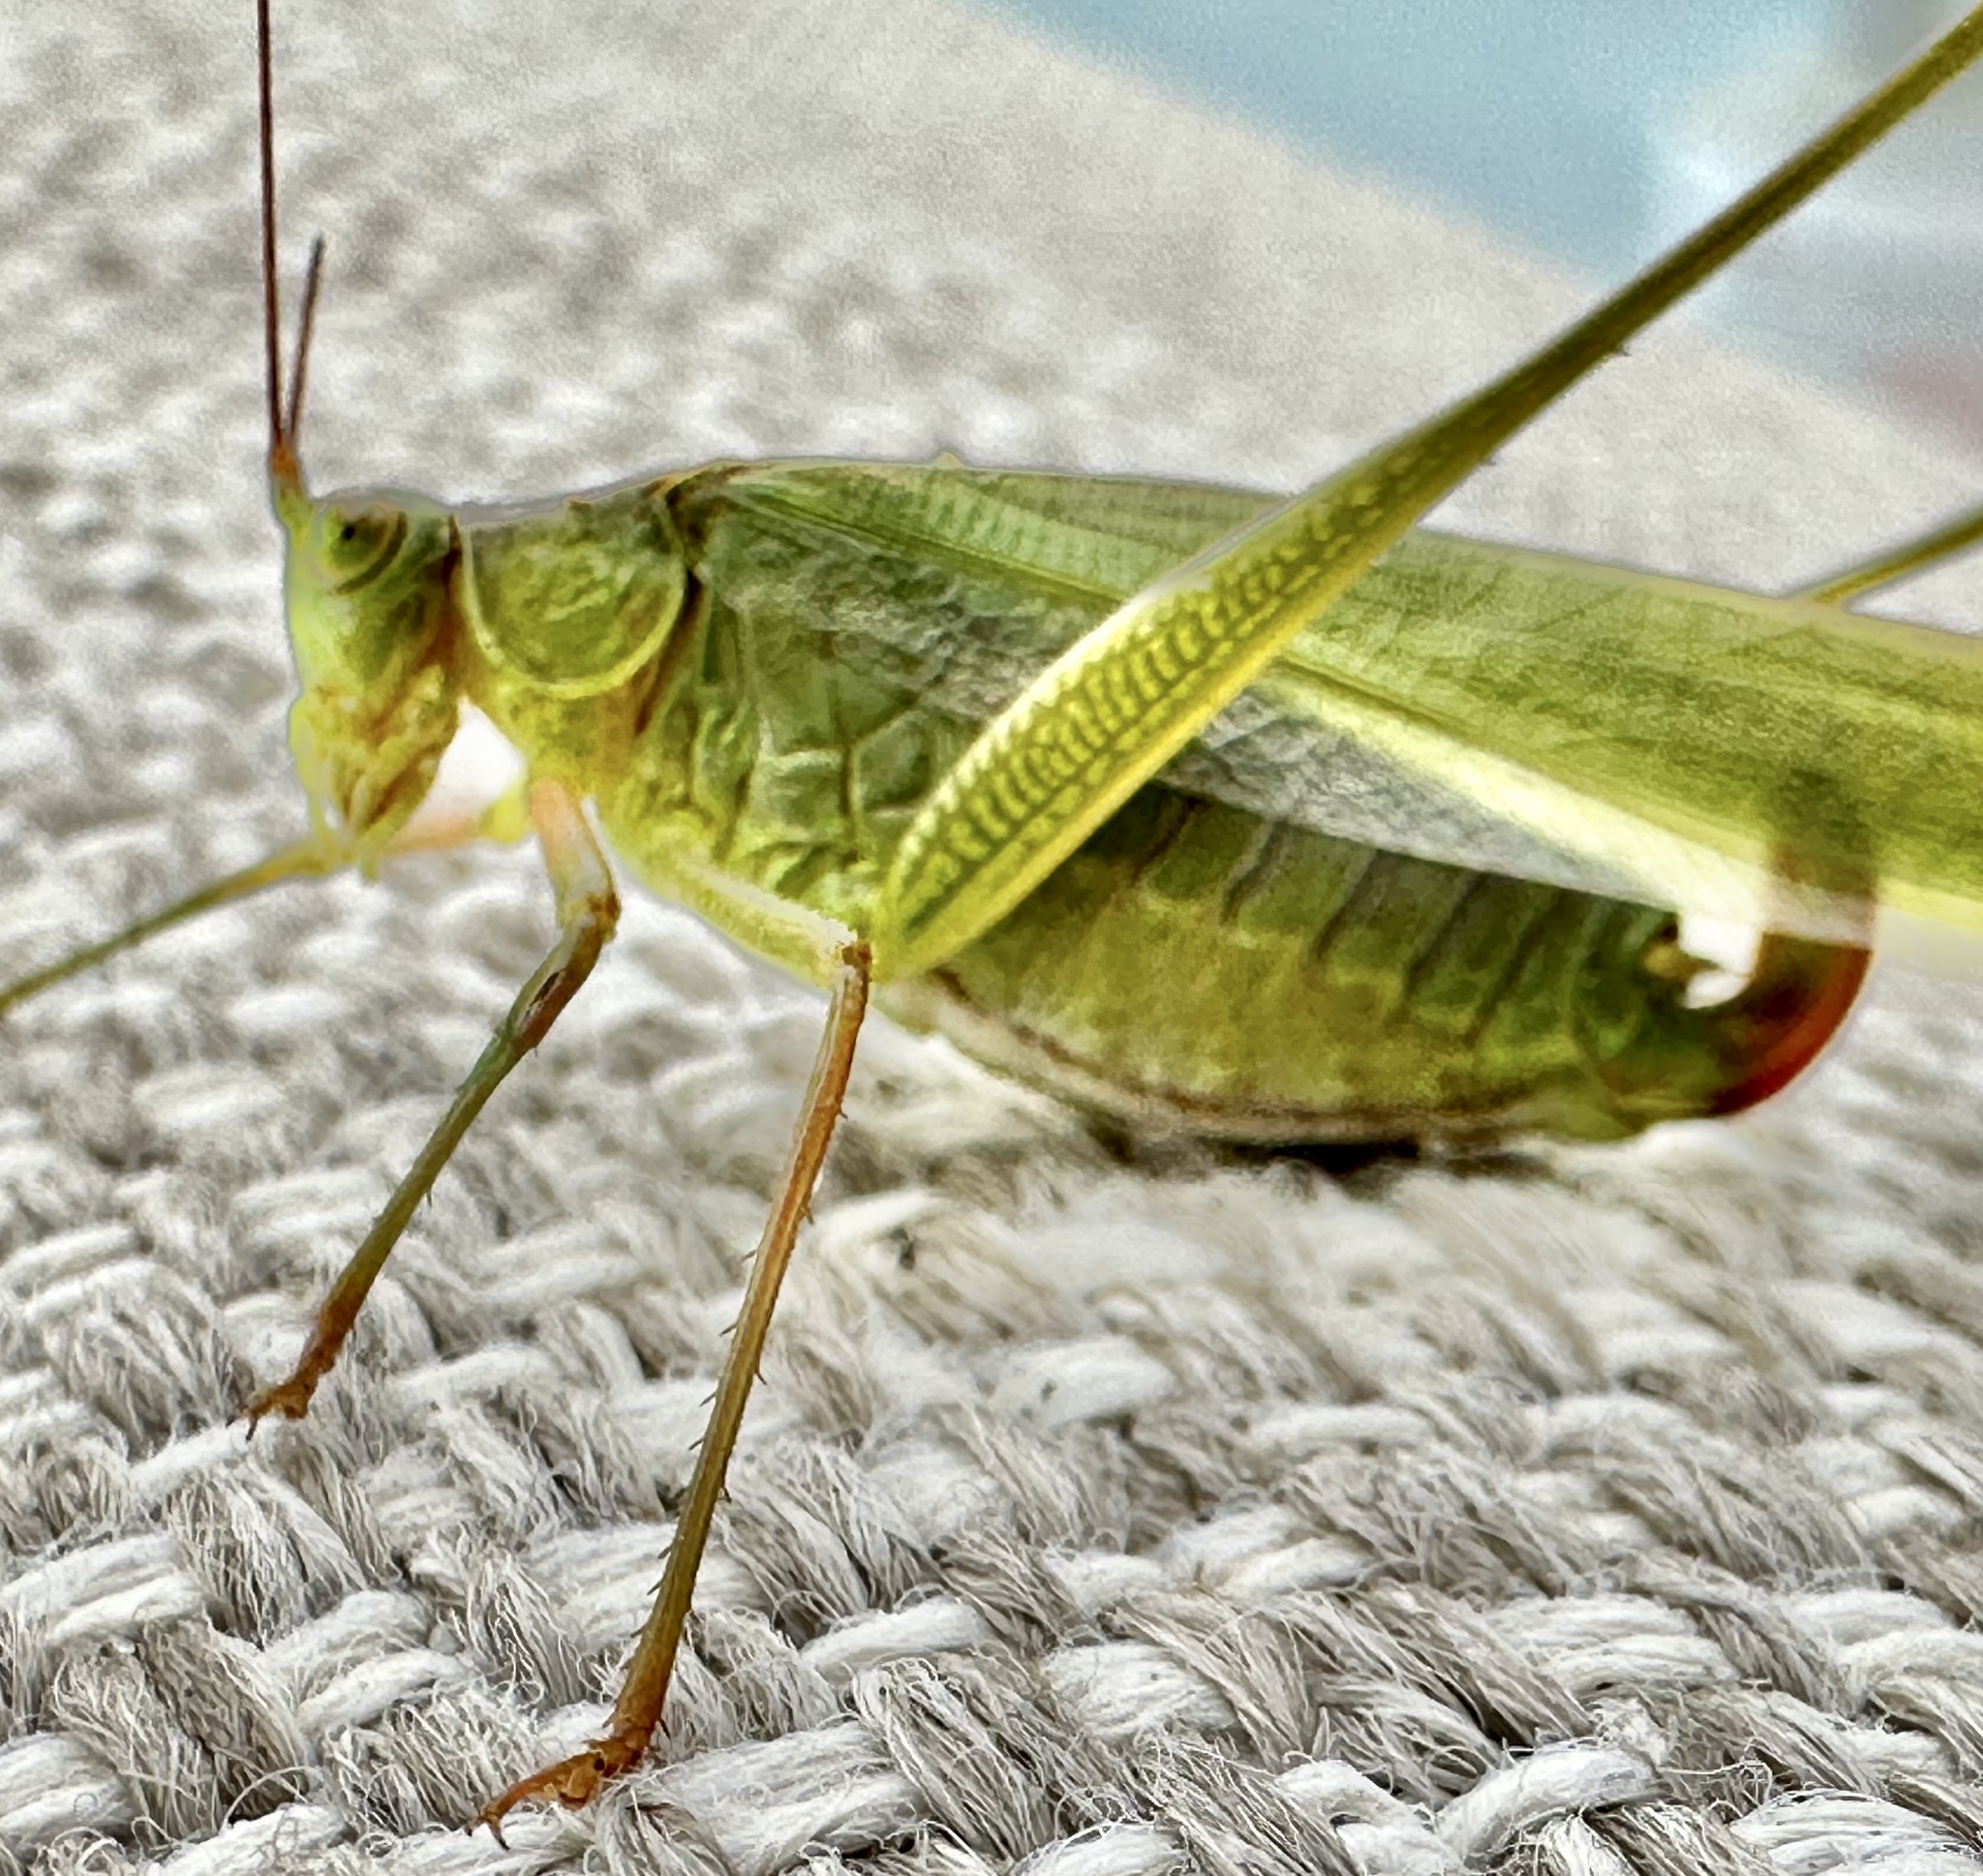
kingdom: Animalia
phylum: Arthropoda
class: Insecta
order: Orthoptera
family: Tettigoniidae
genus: Scudderia
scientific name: Scudderia mexicana
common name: Mexican bush katydid
